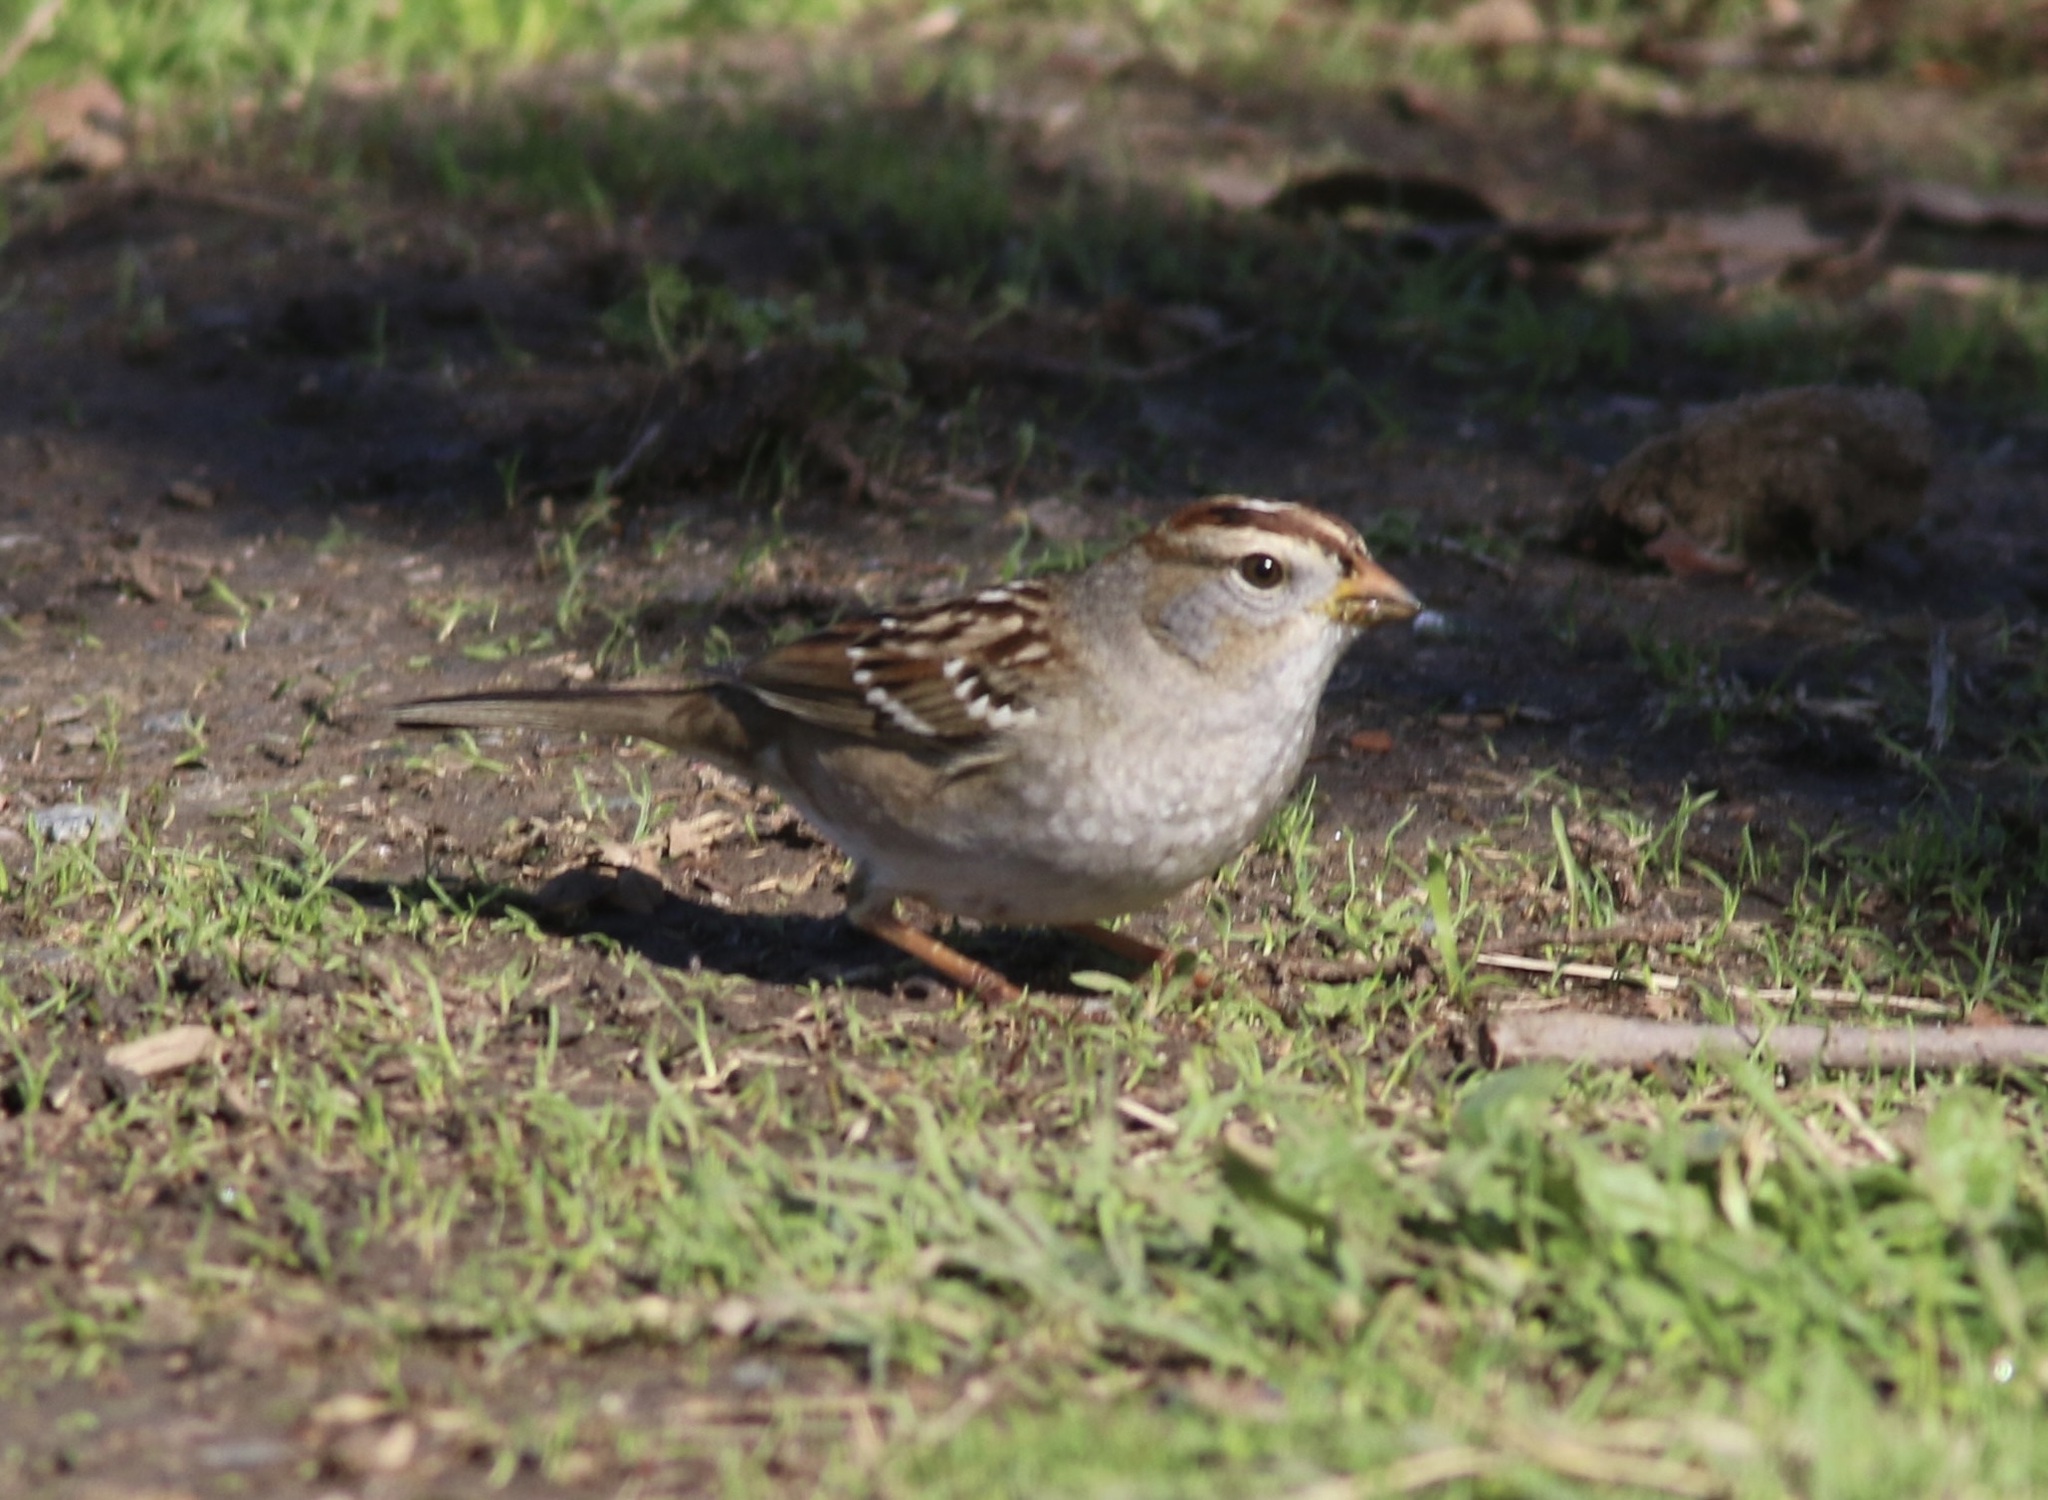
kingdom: Animalia
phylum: Chordata
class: Aves
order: Passeriformes
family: Passerellidae
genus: Zonotrichia
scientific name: Zonotrichia leucophrys
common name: White-crowned sparrow
